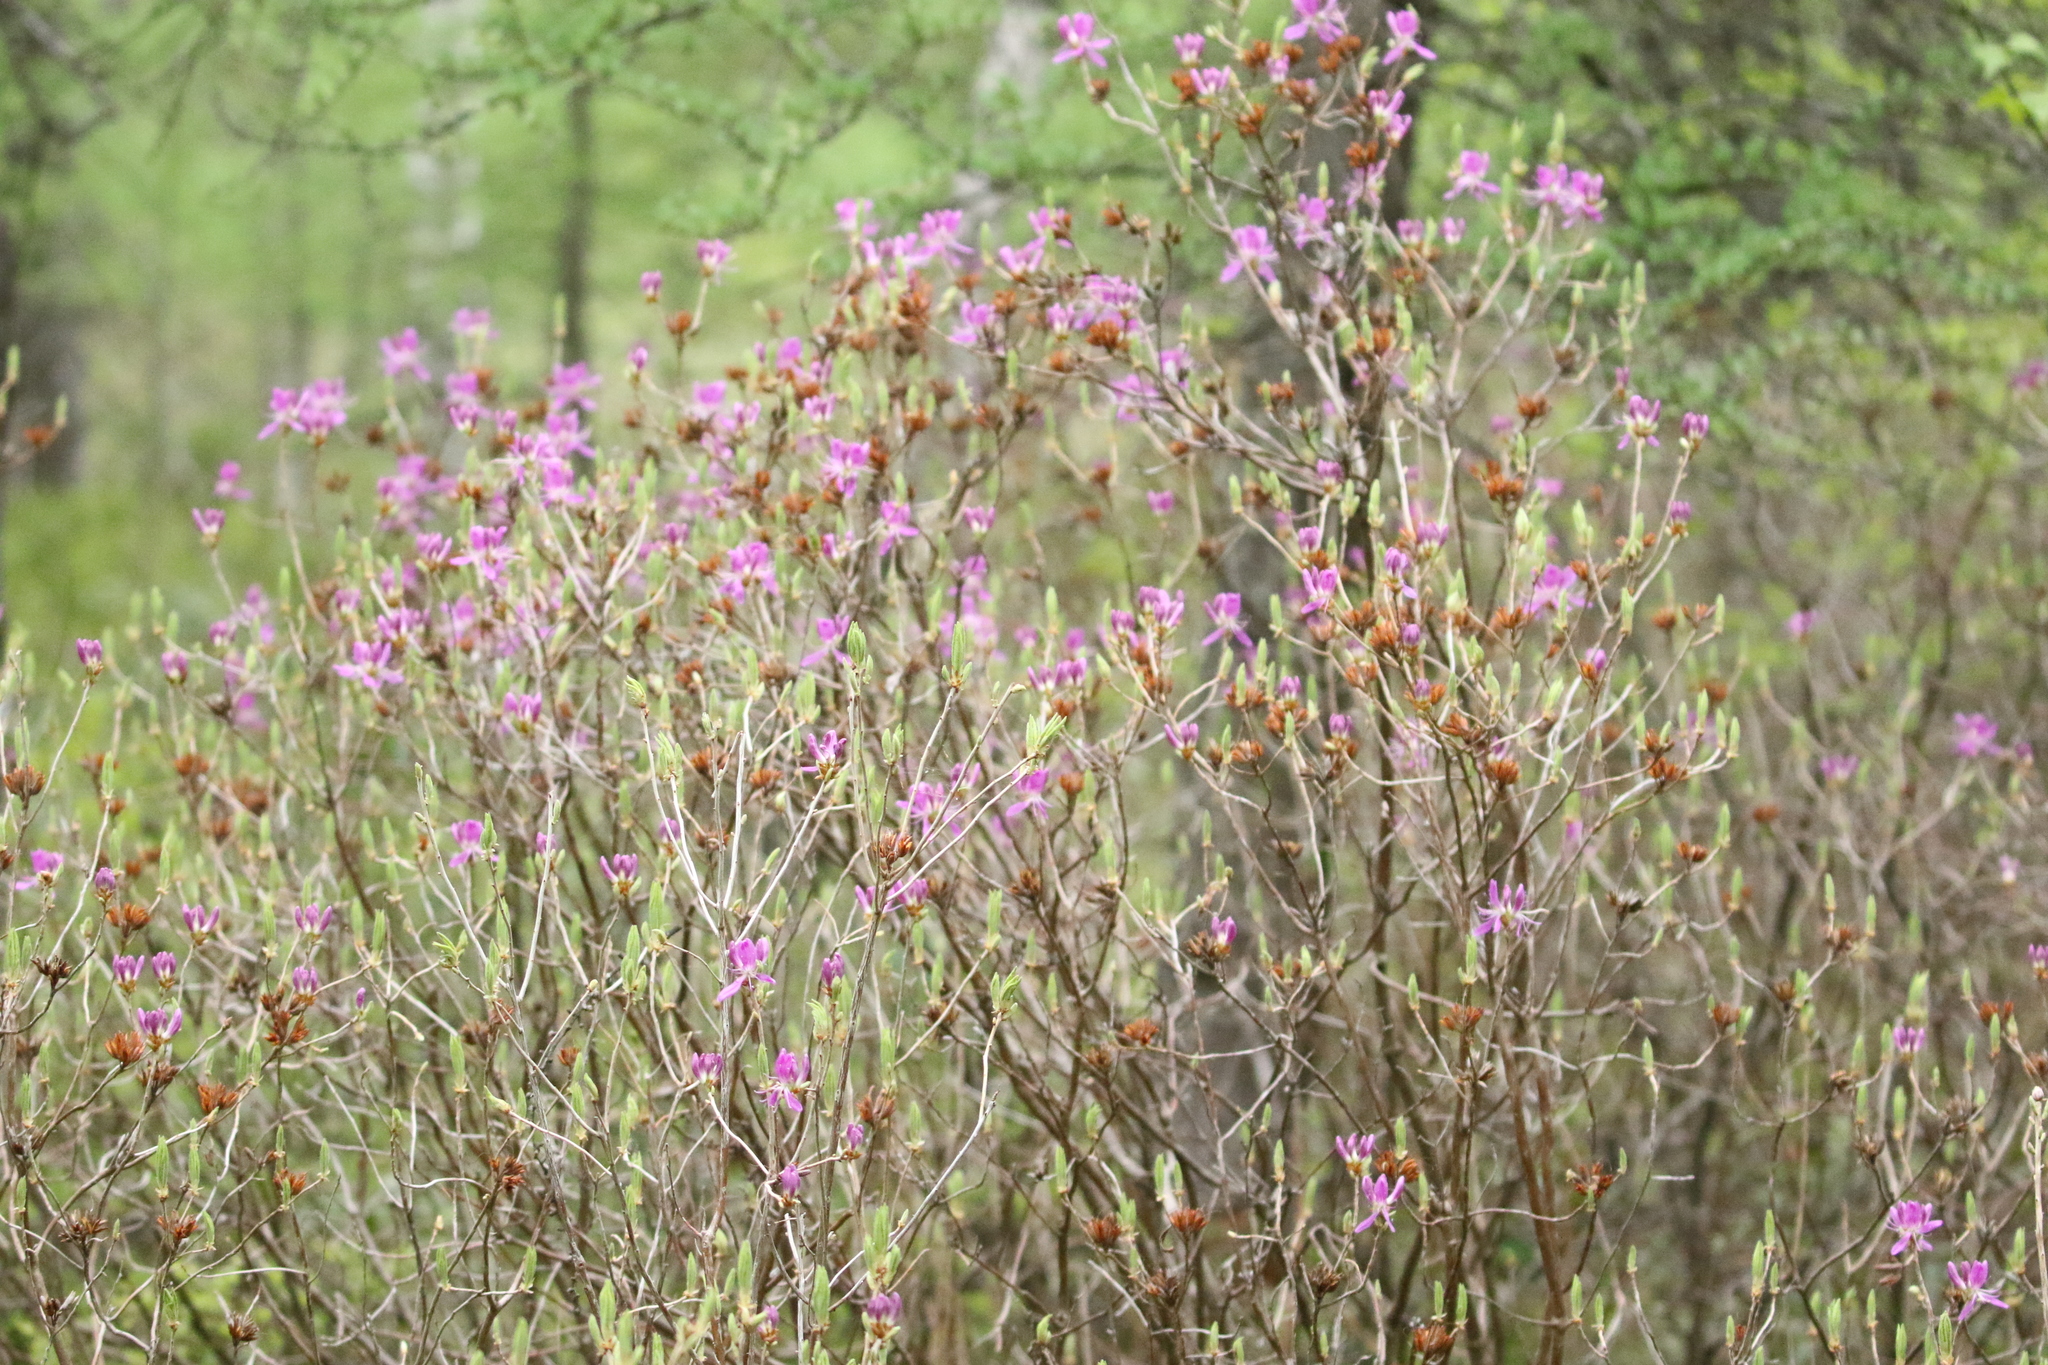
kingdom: Plantae
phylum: Tracheophyta
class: Magnoliopsida
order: Ericales
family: Ericaceae
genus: Rhododendron
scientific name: Rhododendron canadense
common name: Rhodora
